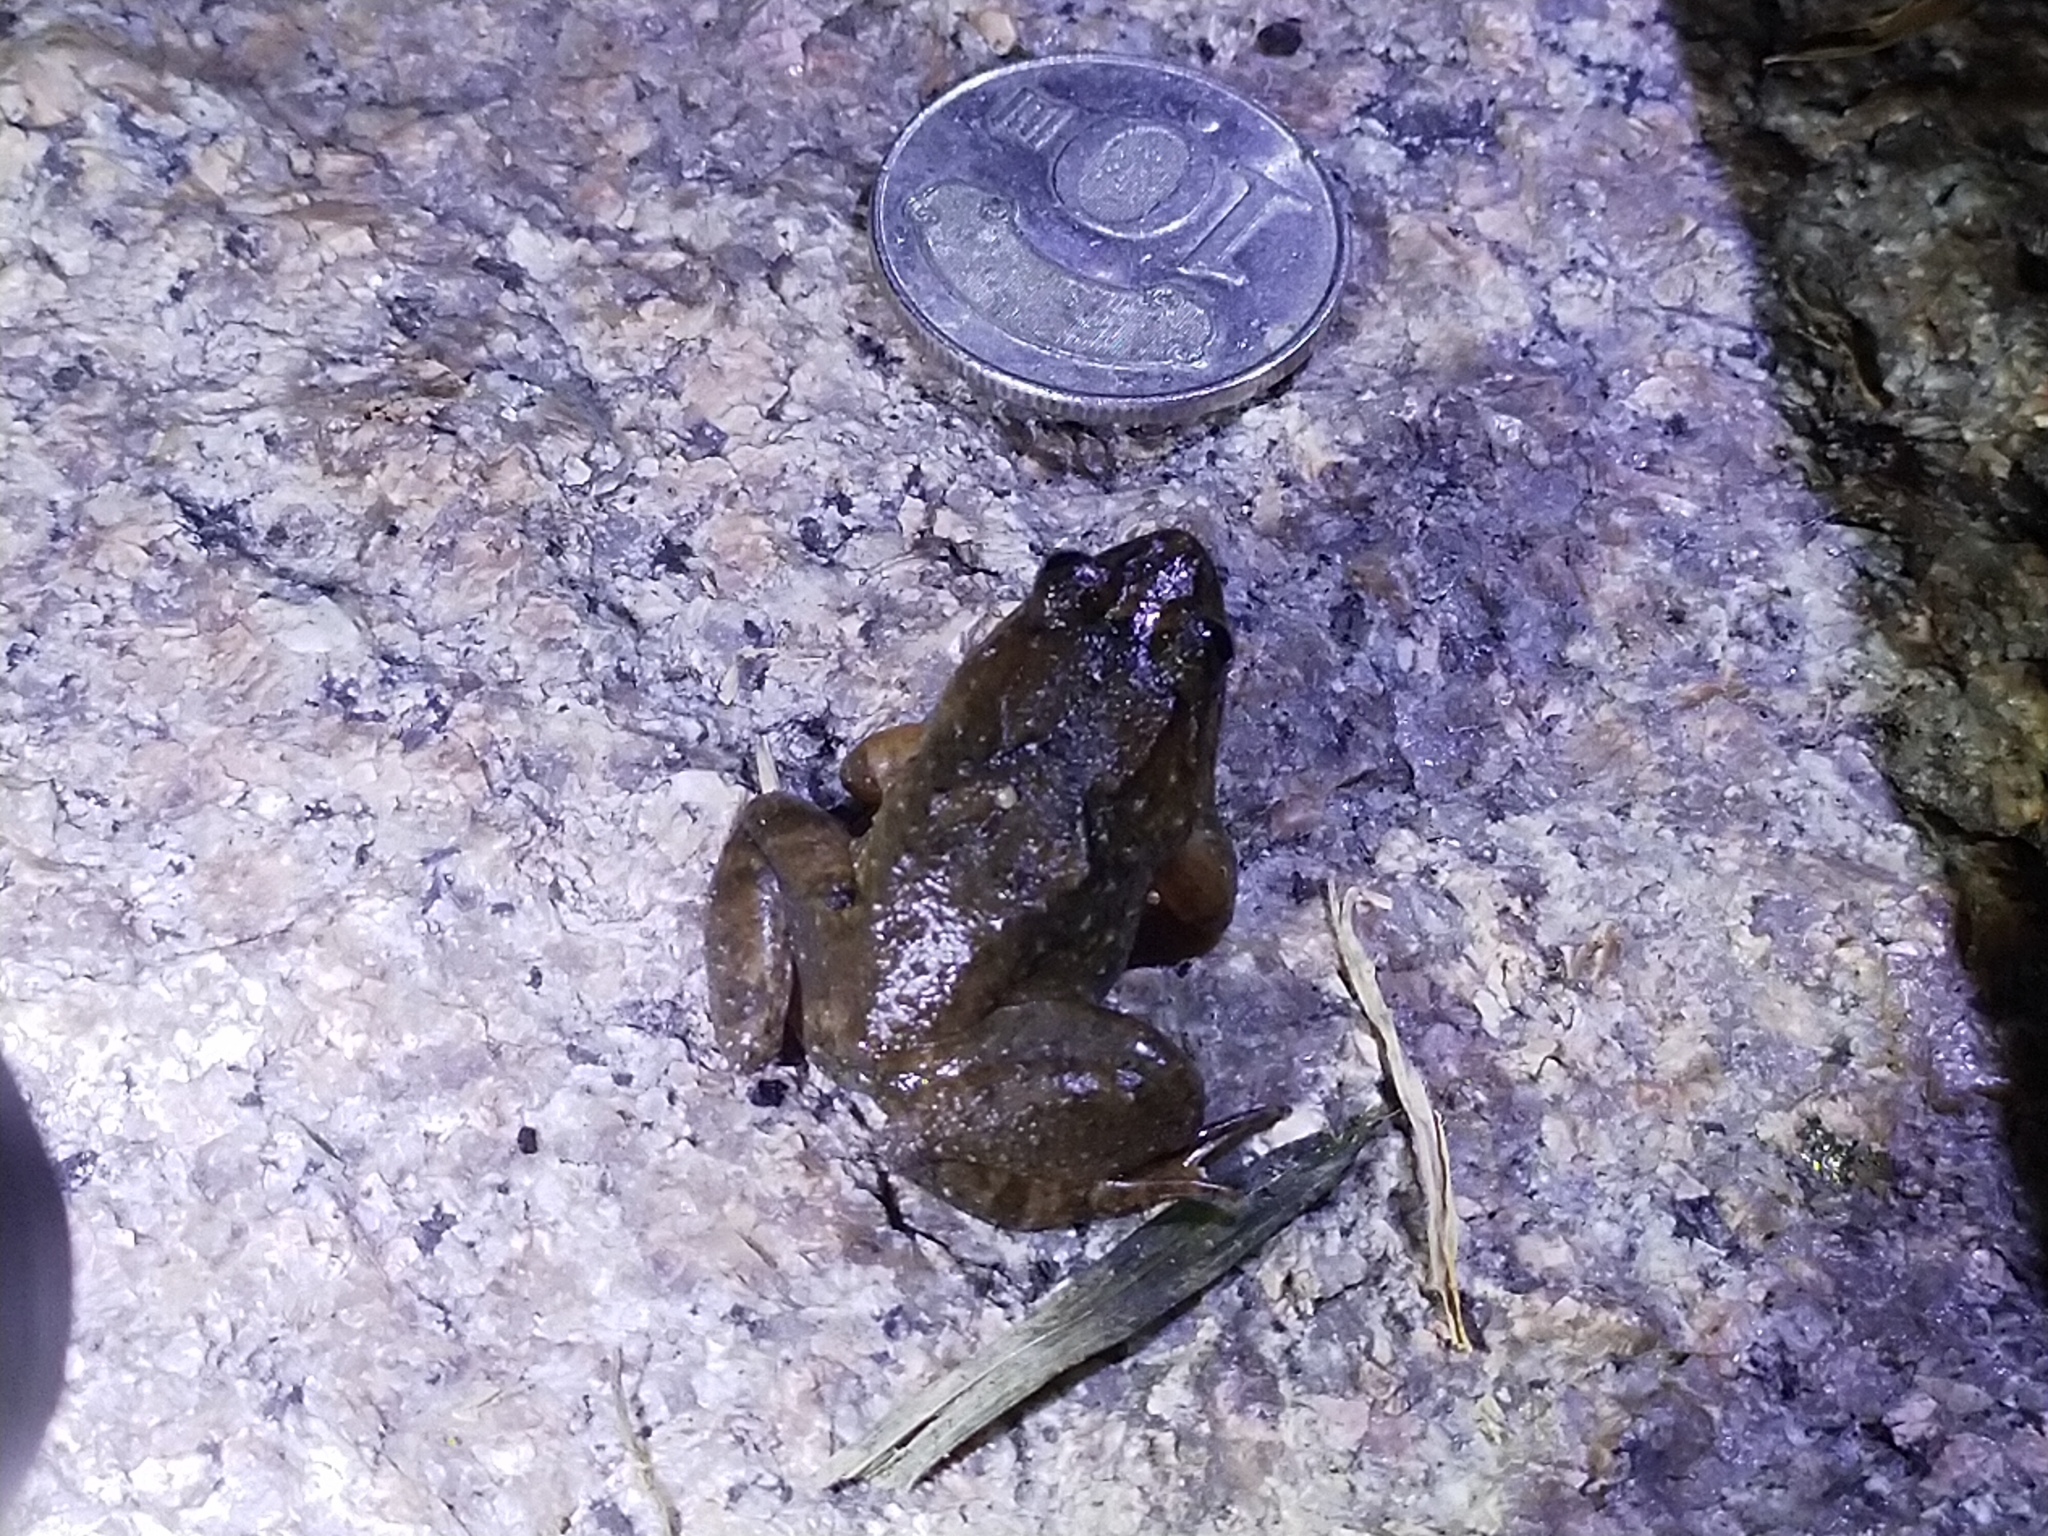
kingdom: Animalia
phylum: Chordata
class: Amphibia
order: Anura
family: Dicroglossidae
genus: Limnonectes
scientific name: Limnonectes fujianensis
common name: Fujian large-headed frog
